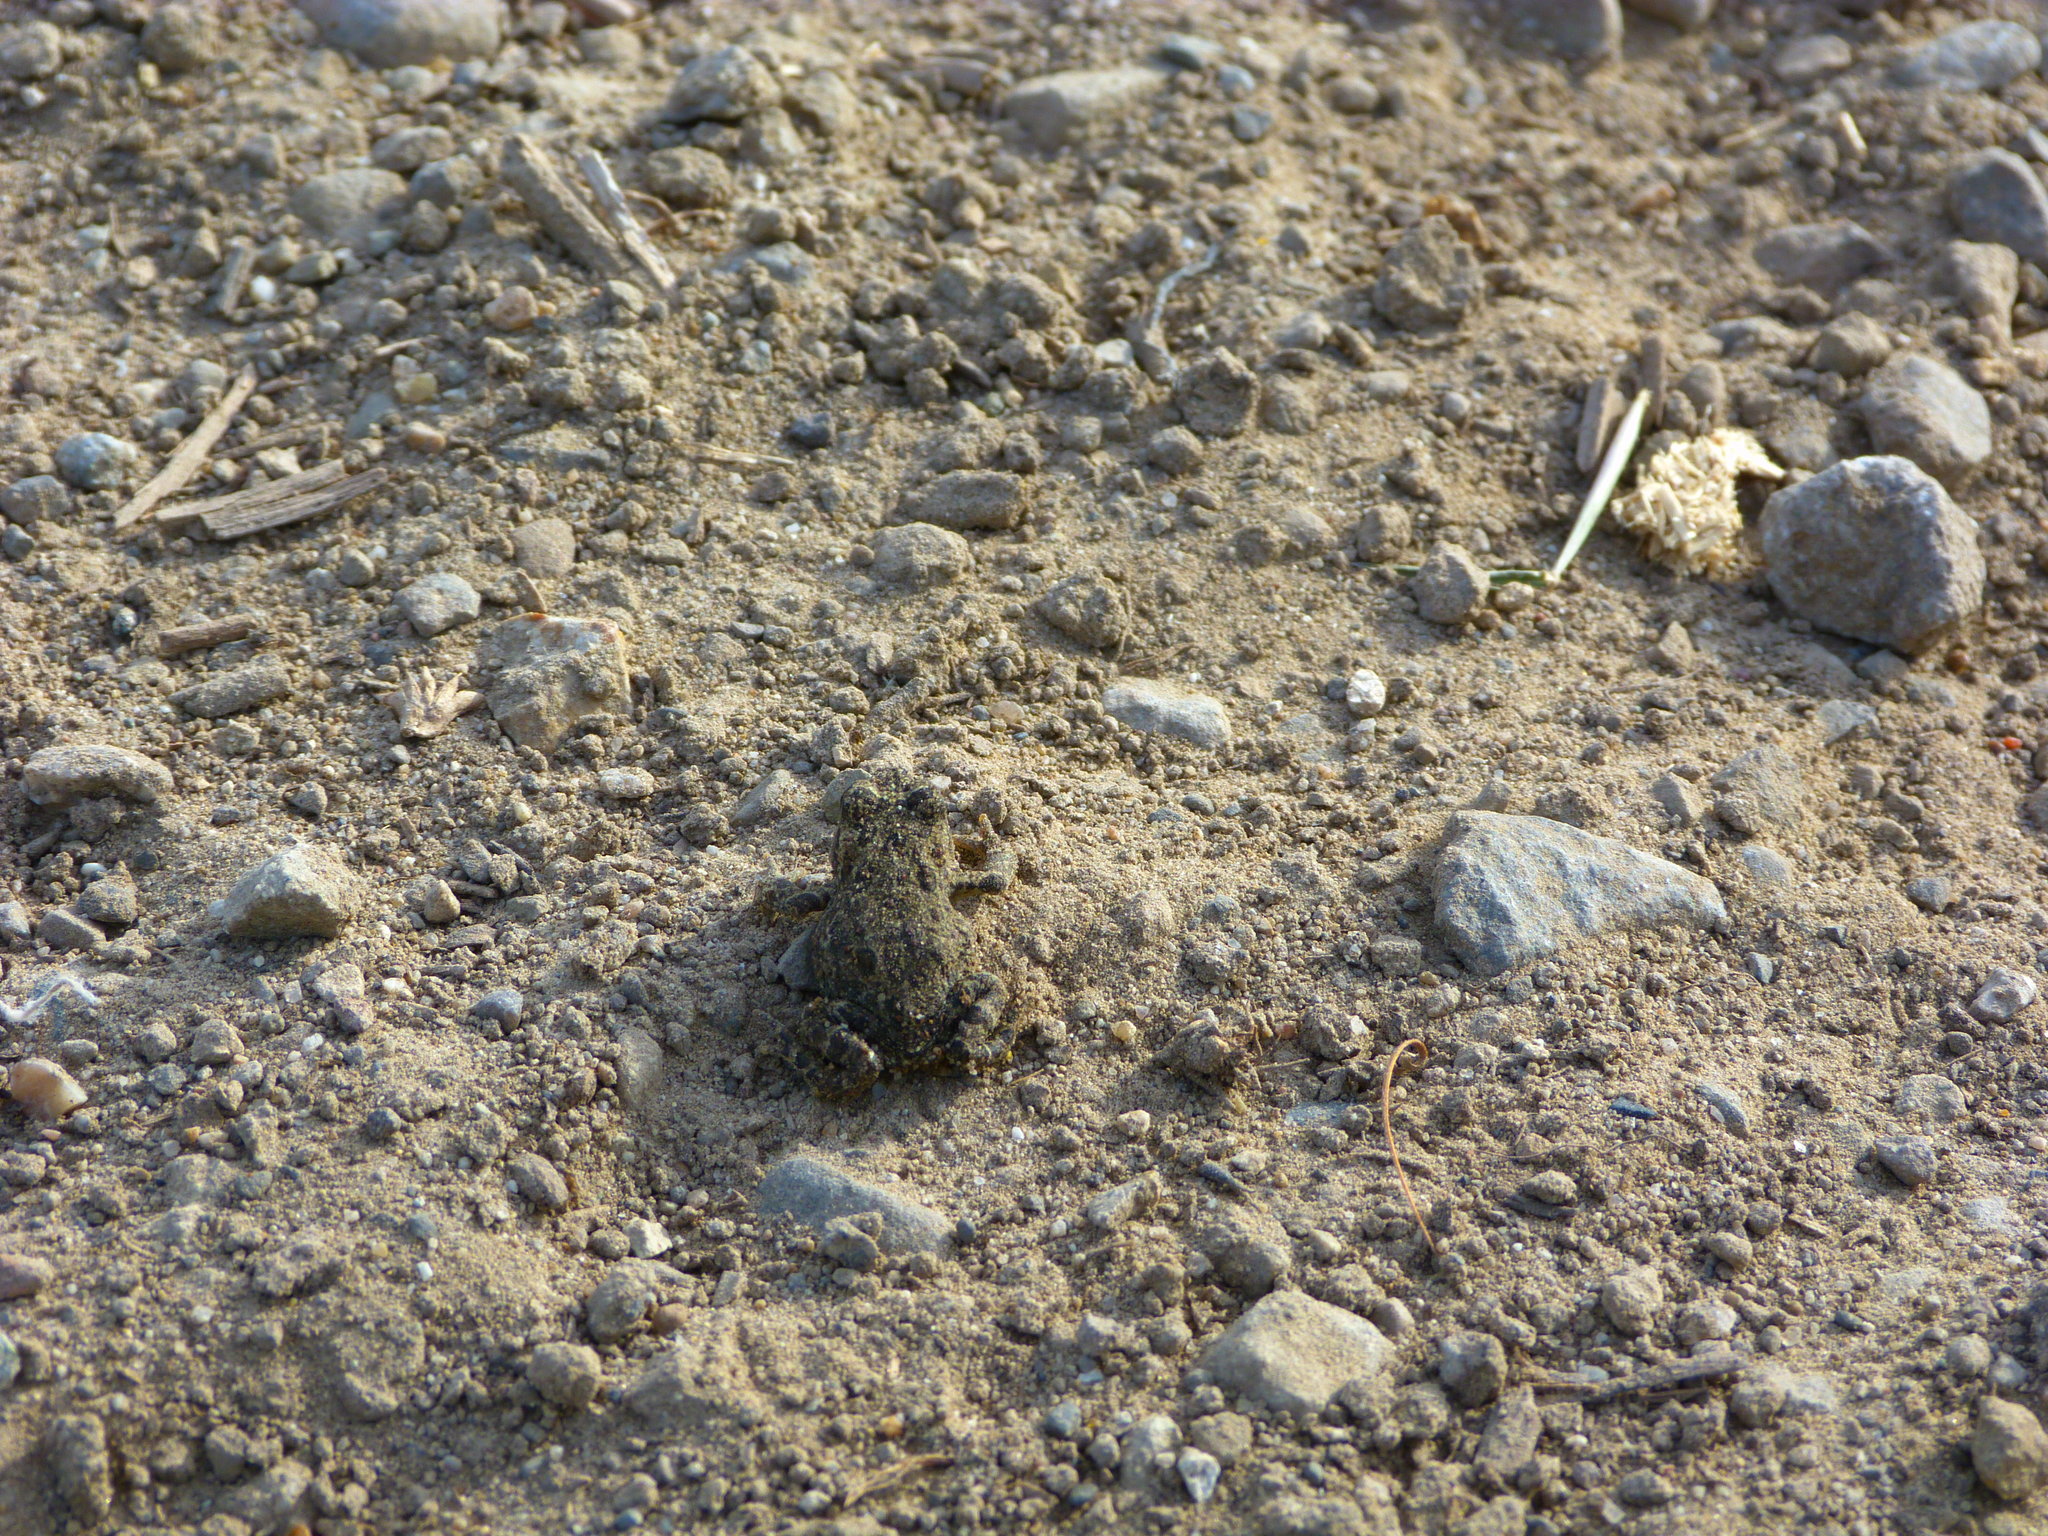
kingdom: Animalia
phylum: Chordata
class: Amphibia
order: Anura
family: Bufonidae
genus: Anaxyrus
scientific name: Anaxyrus boreas
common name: Western toad
